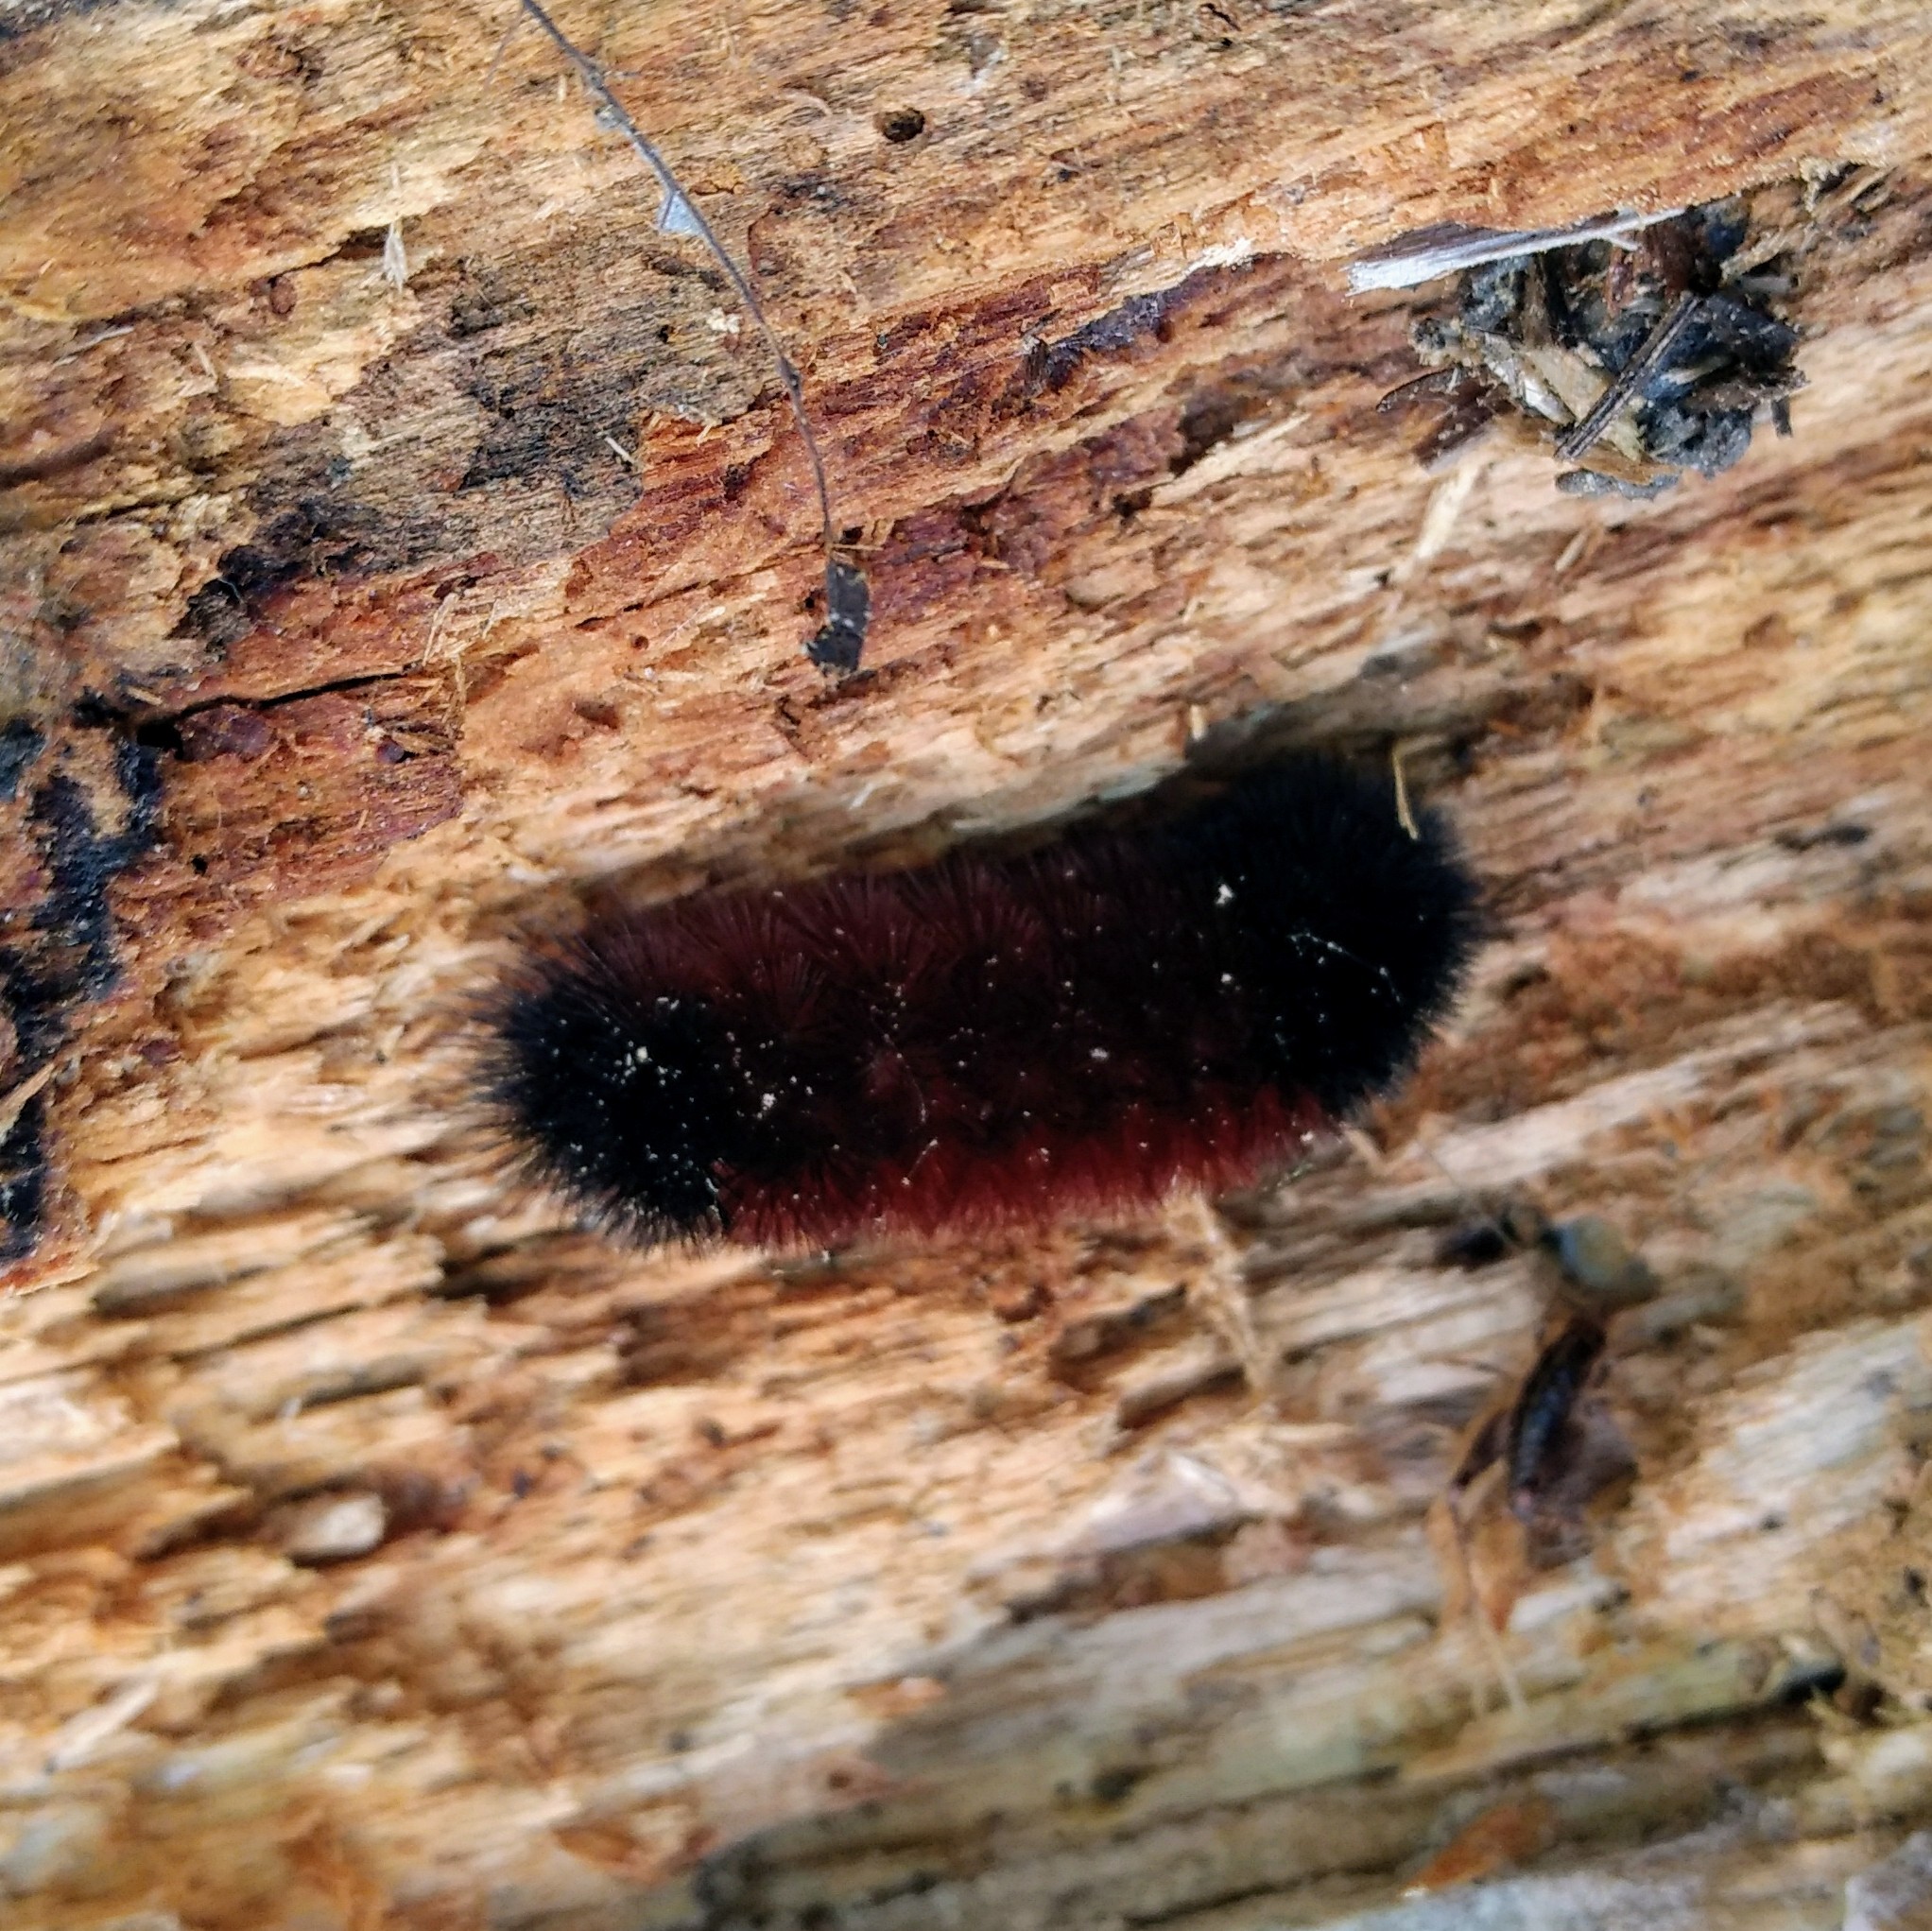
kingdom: Animalia
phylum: Arthropoda
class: Insecta
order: Lepidoptera
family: Erebidae
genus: Pyrrharctia
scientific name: Pyrrharctia isabella
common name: Isabella tiger moth
